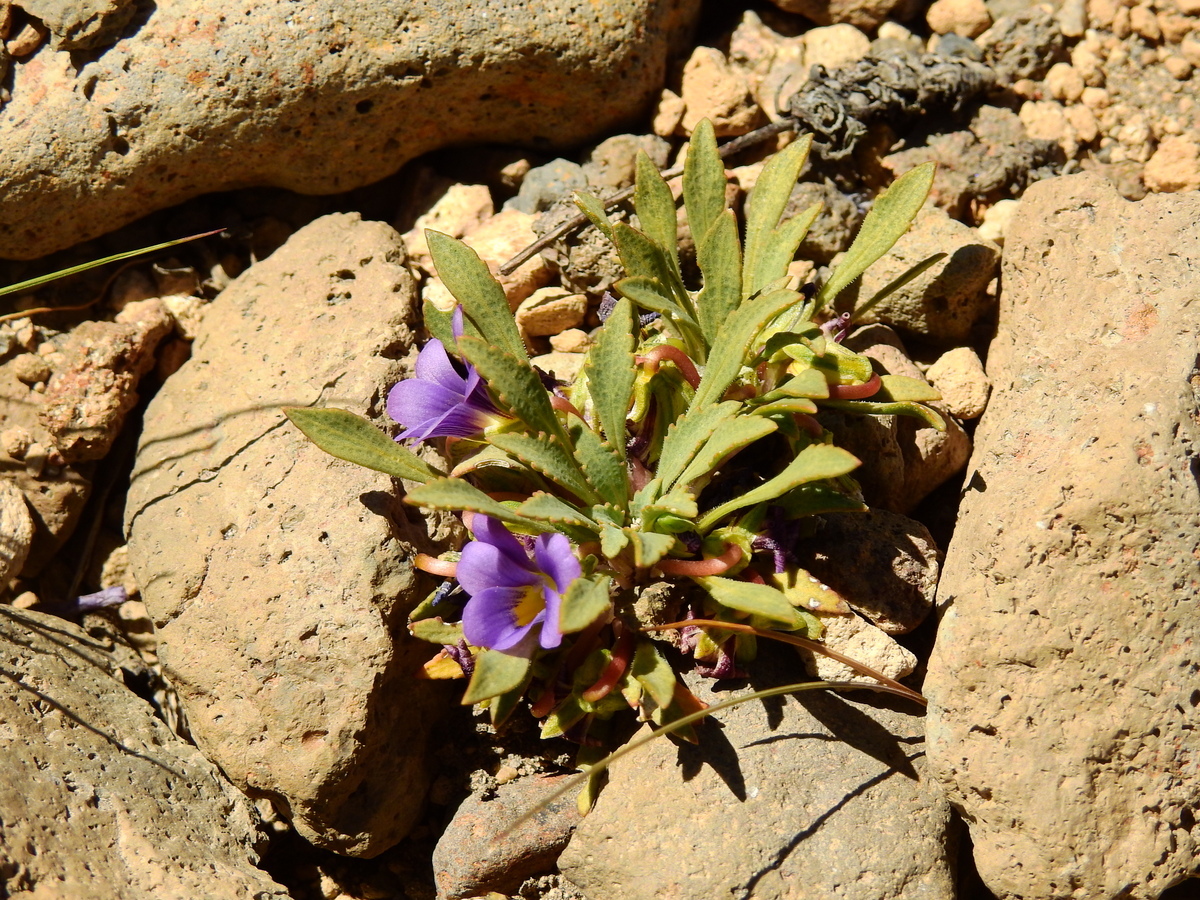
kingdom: Plantae
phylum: Tracheophyta
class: Magnoliopsida
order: Malpighiales
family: Violaceae
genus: Viola
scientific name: Viola cheeseana
